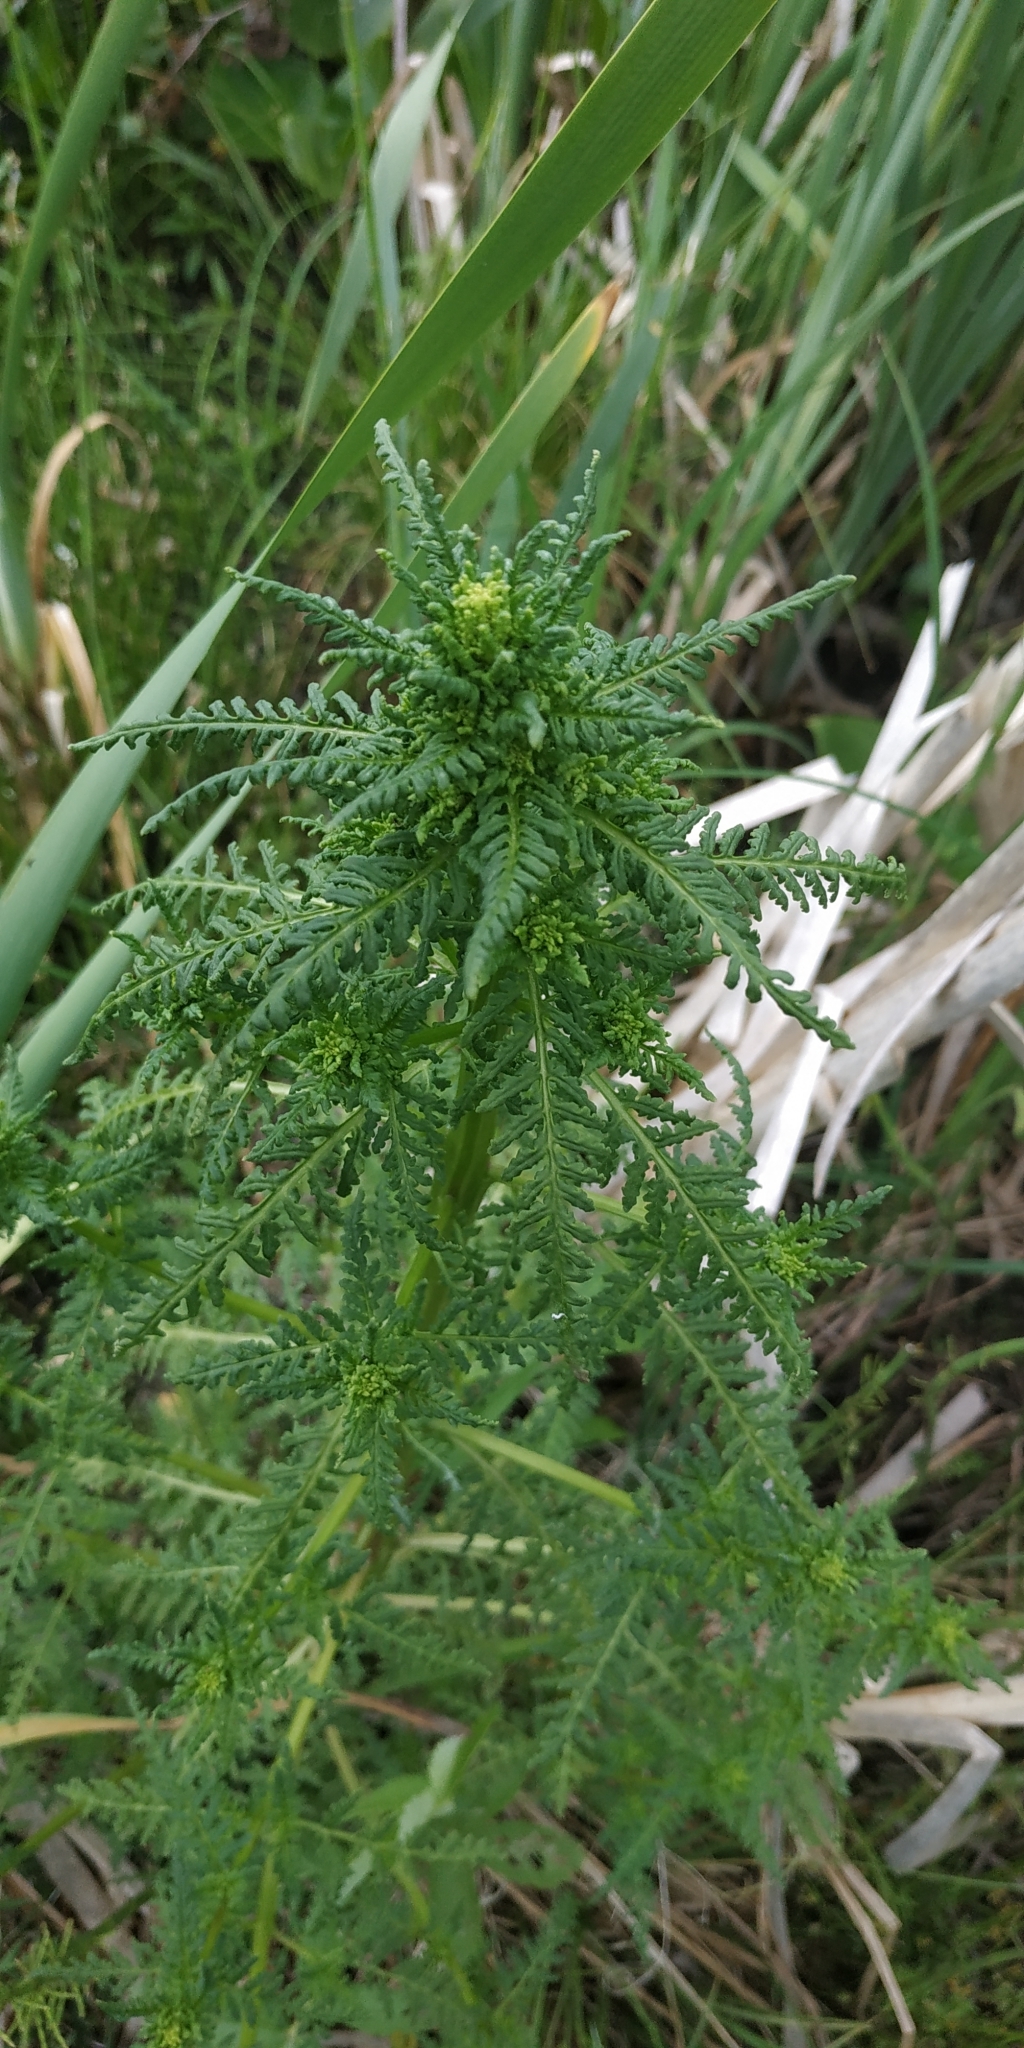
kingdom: Plantae
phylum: Tracheophyta
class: Magnoliopsida
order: Lamiales
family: Orobanchaceae
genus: Pedicularis
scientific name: Pedicularis karoi
